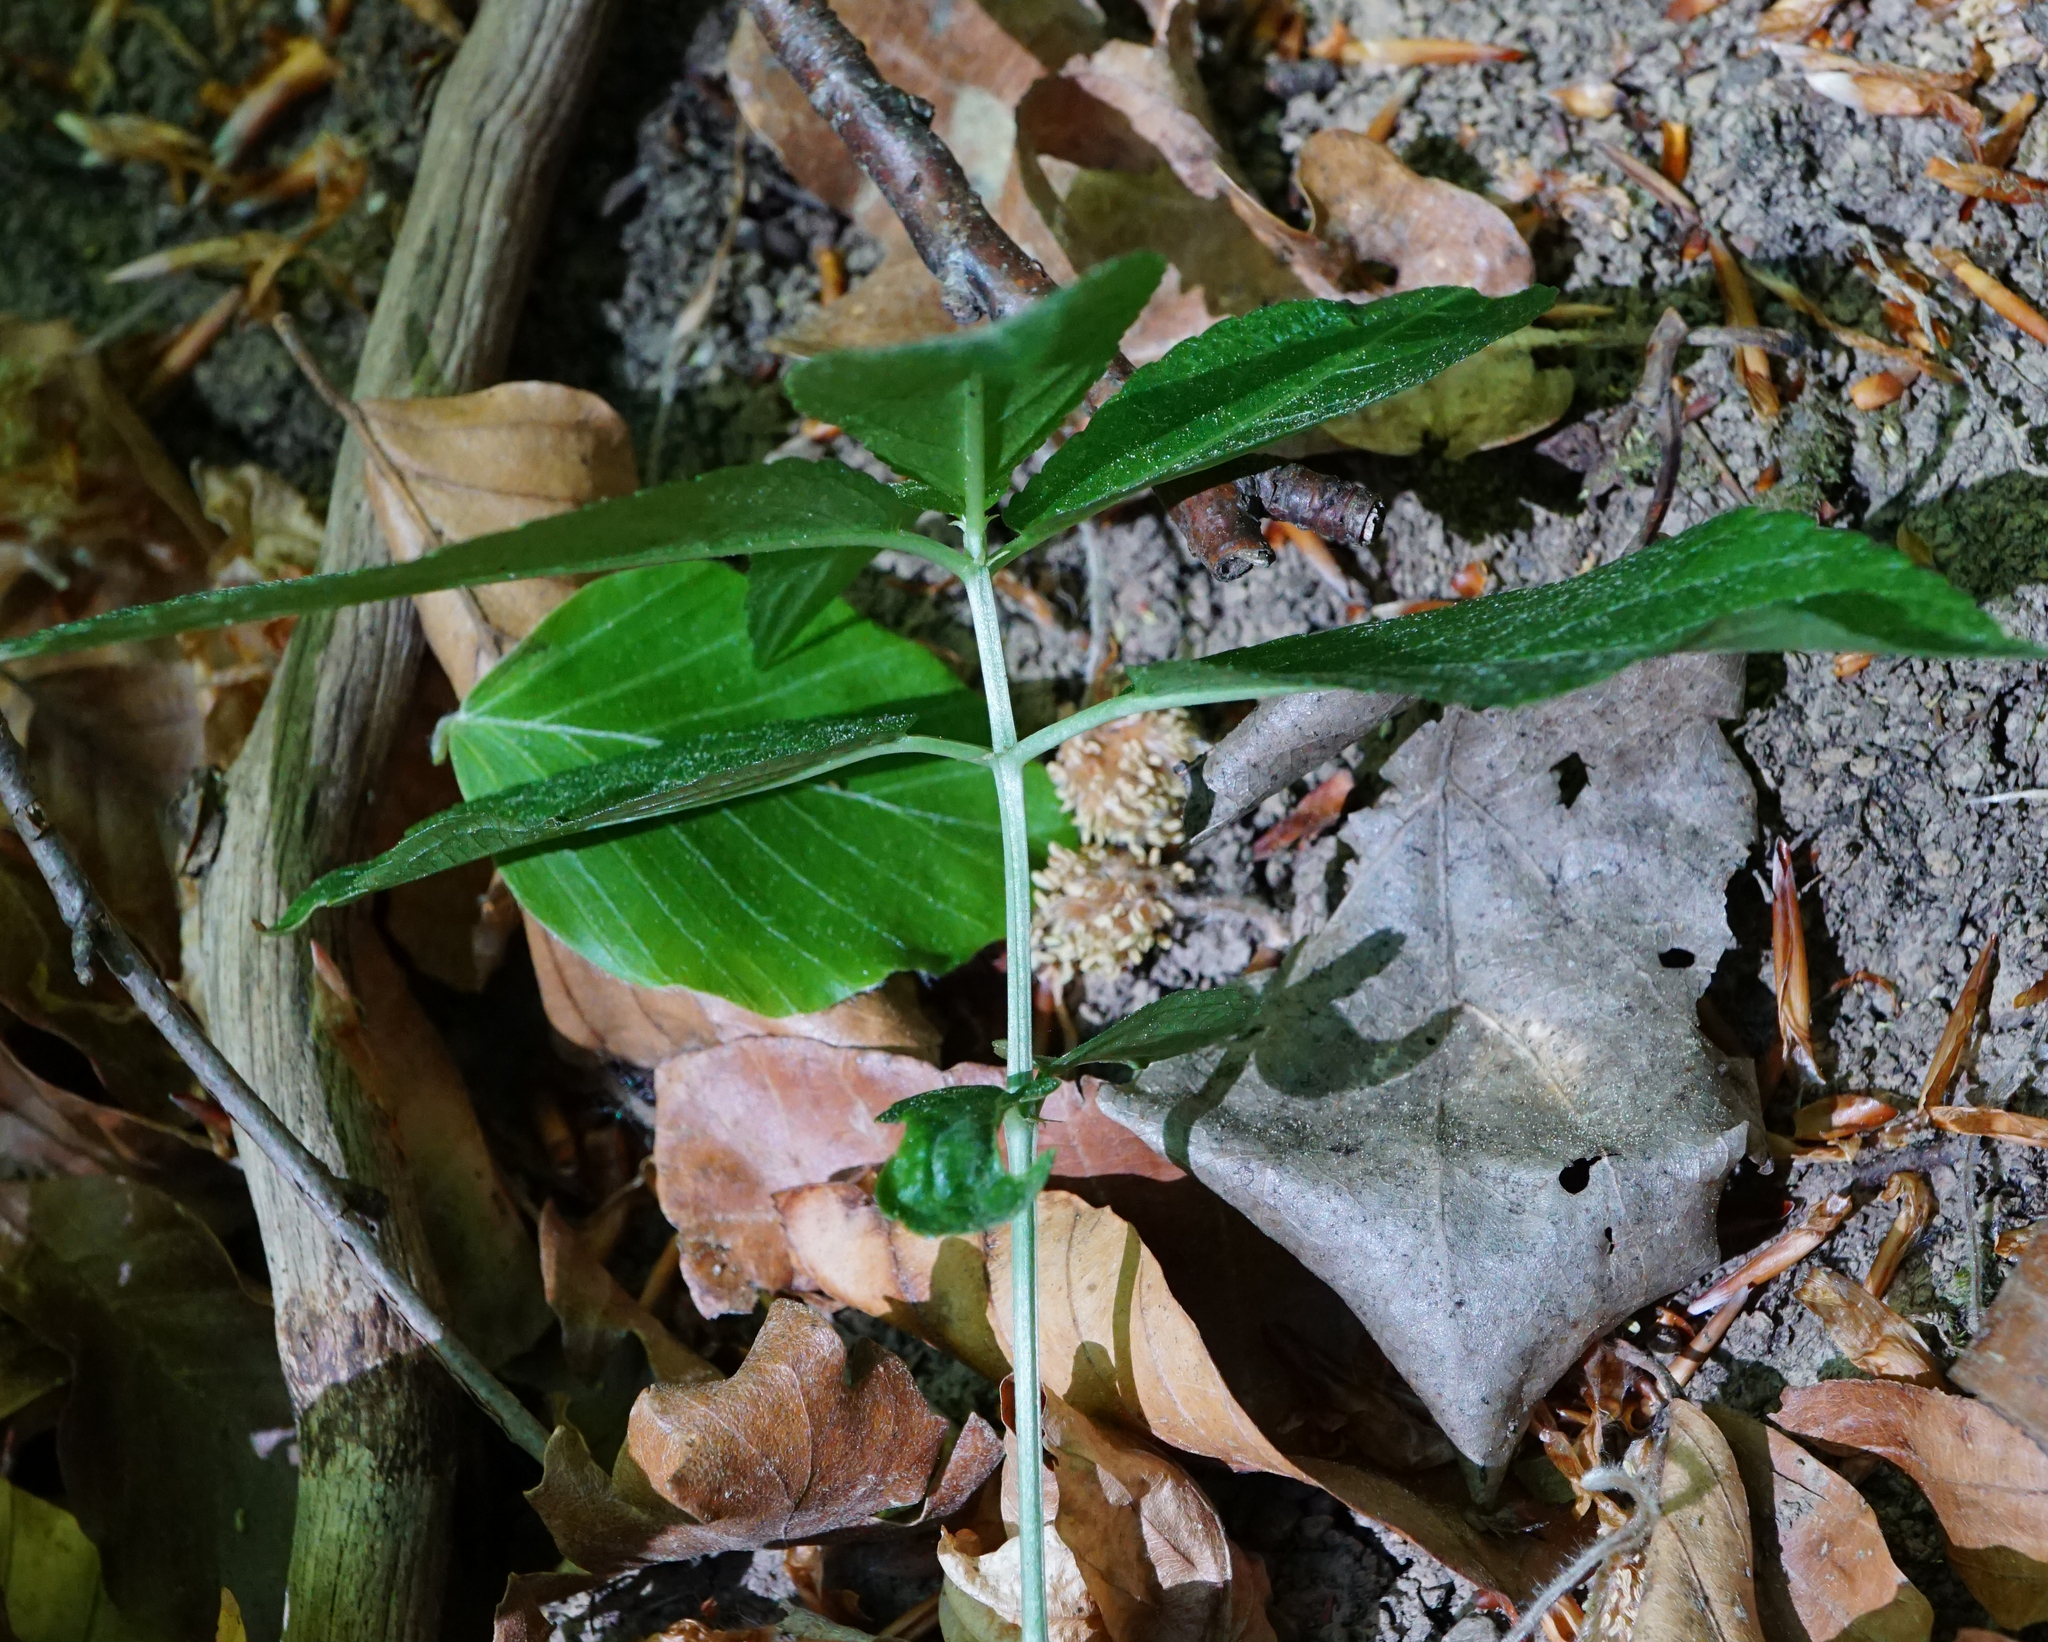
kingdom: Plantae
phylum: Tracheophyta
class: Magnoliopsida
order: Malpighiales
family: Euphorbiaceae
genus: Mercurialis
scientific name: Mercurialis perennis
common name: Dog mercury
